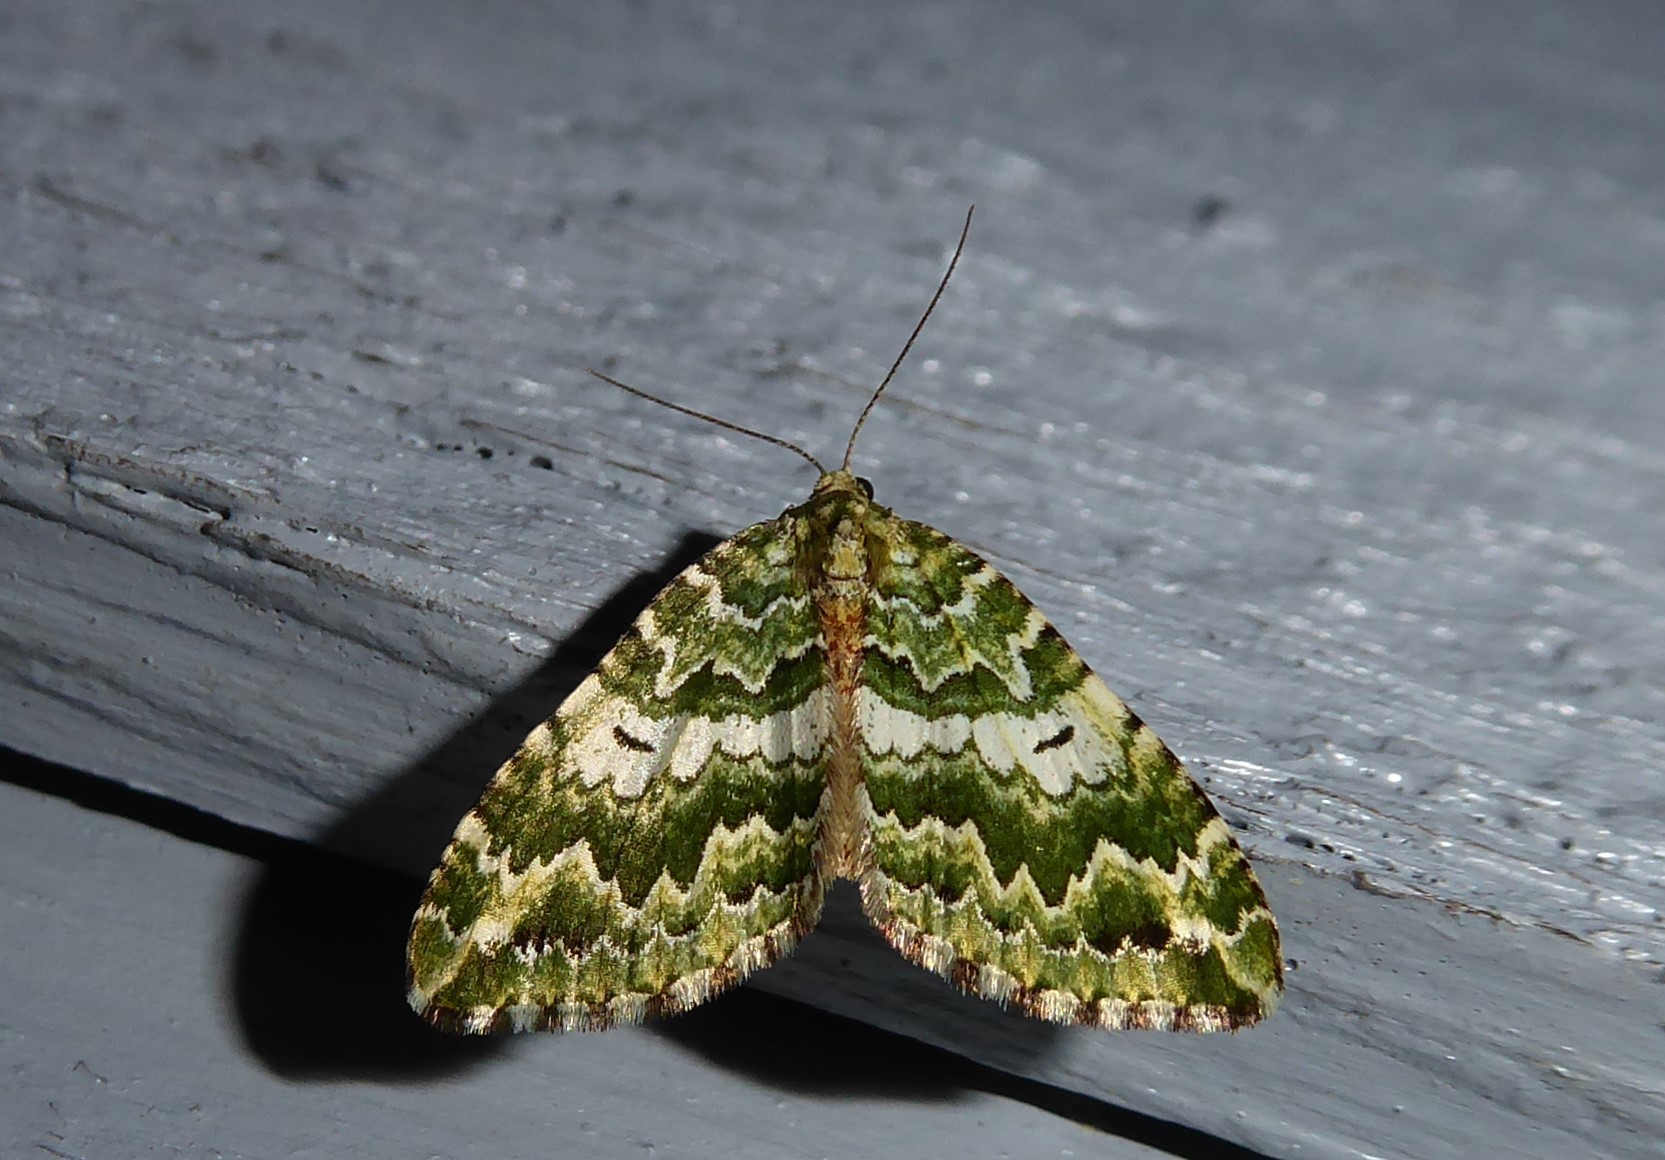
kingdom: Animalia
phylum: Arthropoda
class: Insecta
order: Lepidoptera
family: Geometridae
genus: Asaphodes
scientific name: Asaphodes beata
